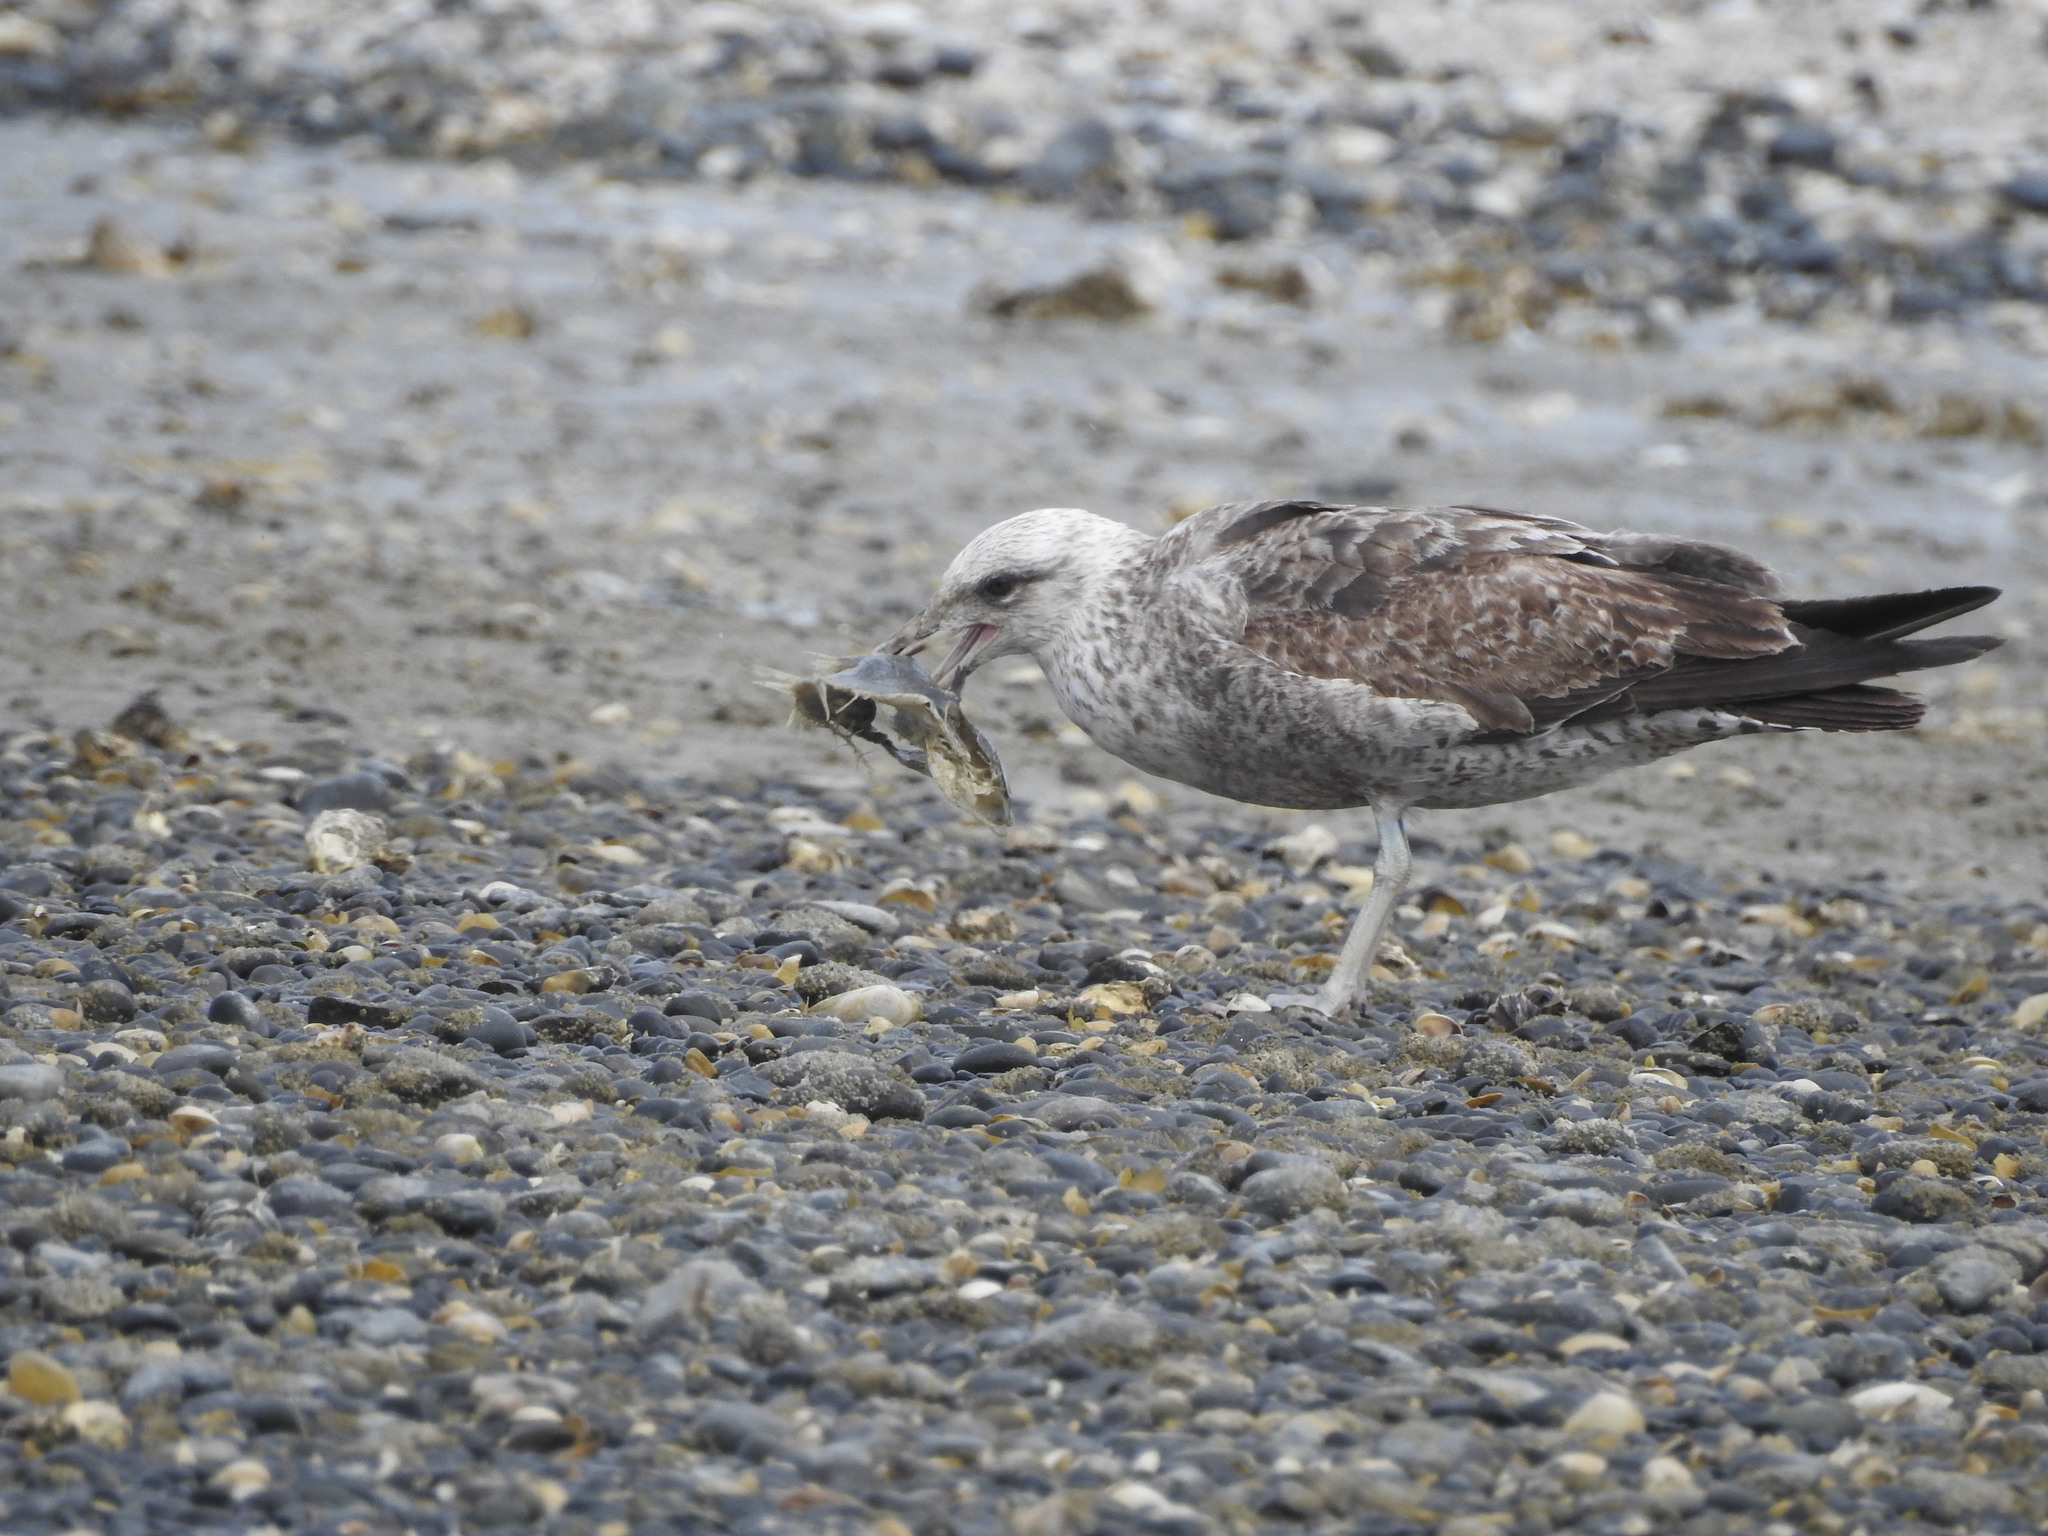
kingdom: Animalia
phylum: Chordata
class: Aves
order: Charadriiformes
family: Laridae
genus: Larus
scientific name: Larus dominicanus
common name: Kelp gull
